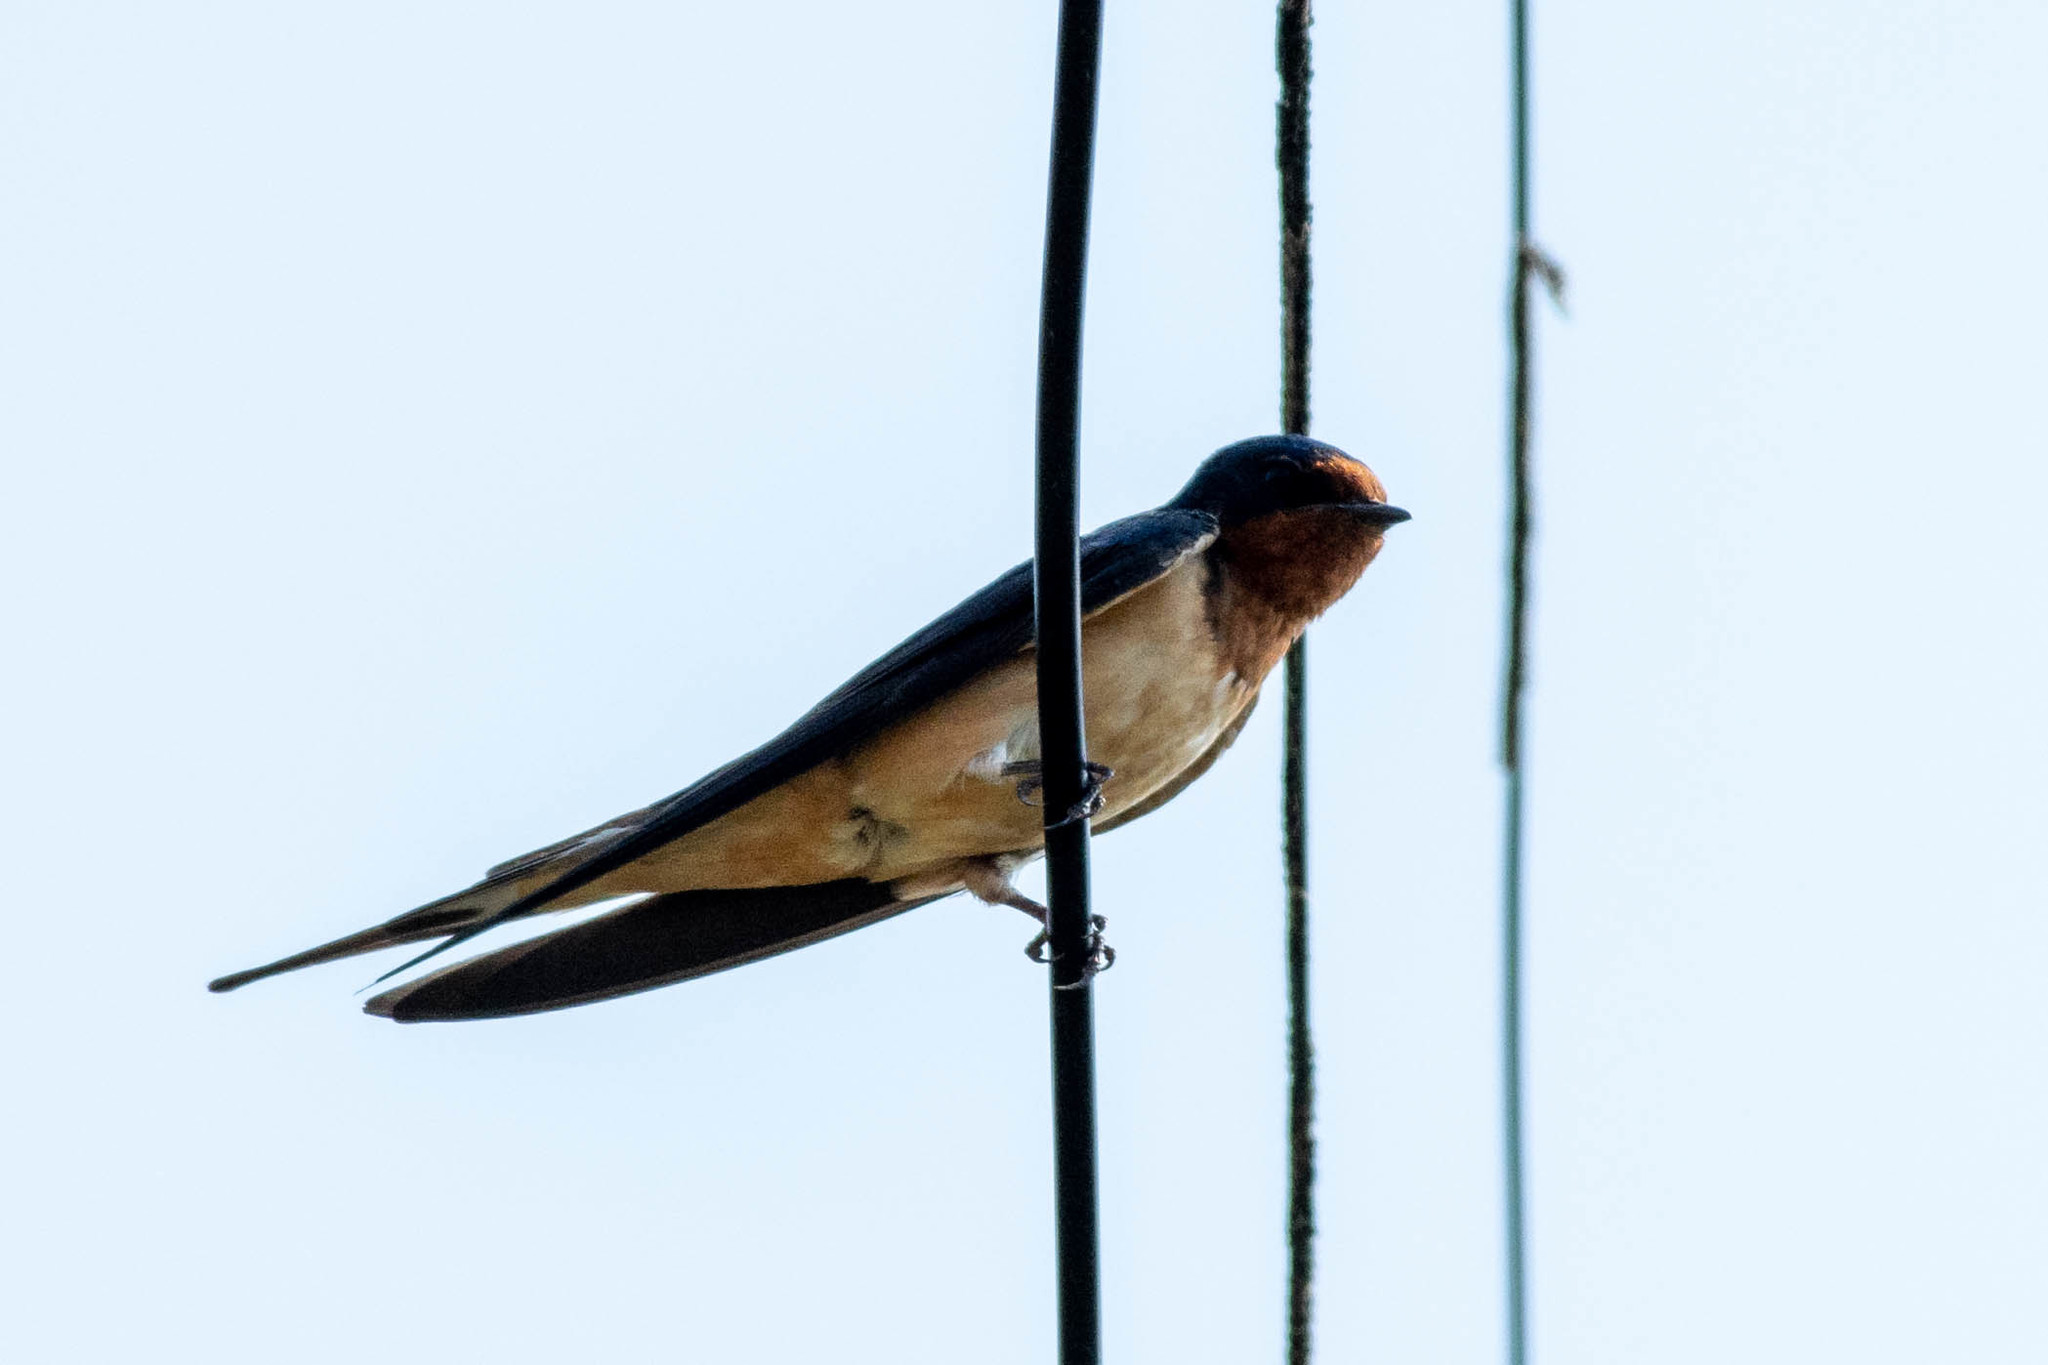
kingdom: Animalia
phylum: Chordata
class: Aves
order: Passeriformes
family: Hirundinidae
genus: Hirundo
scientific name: Hirundo rustica
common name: Barn swallow
